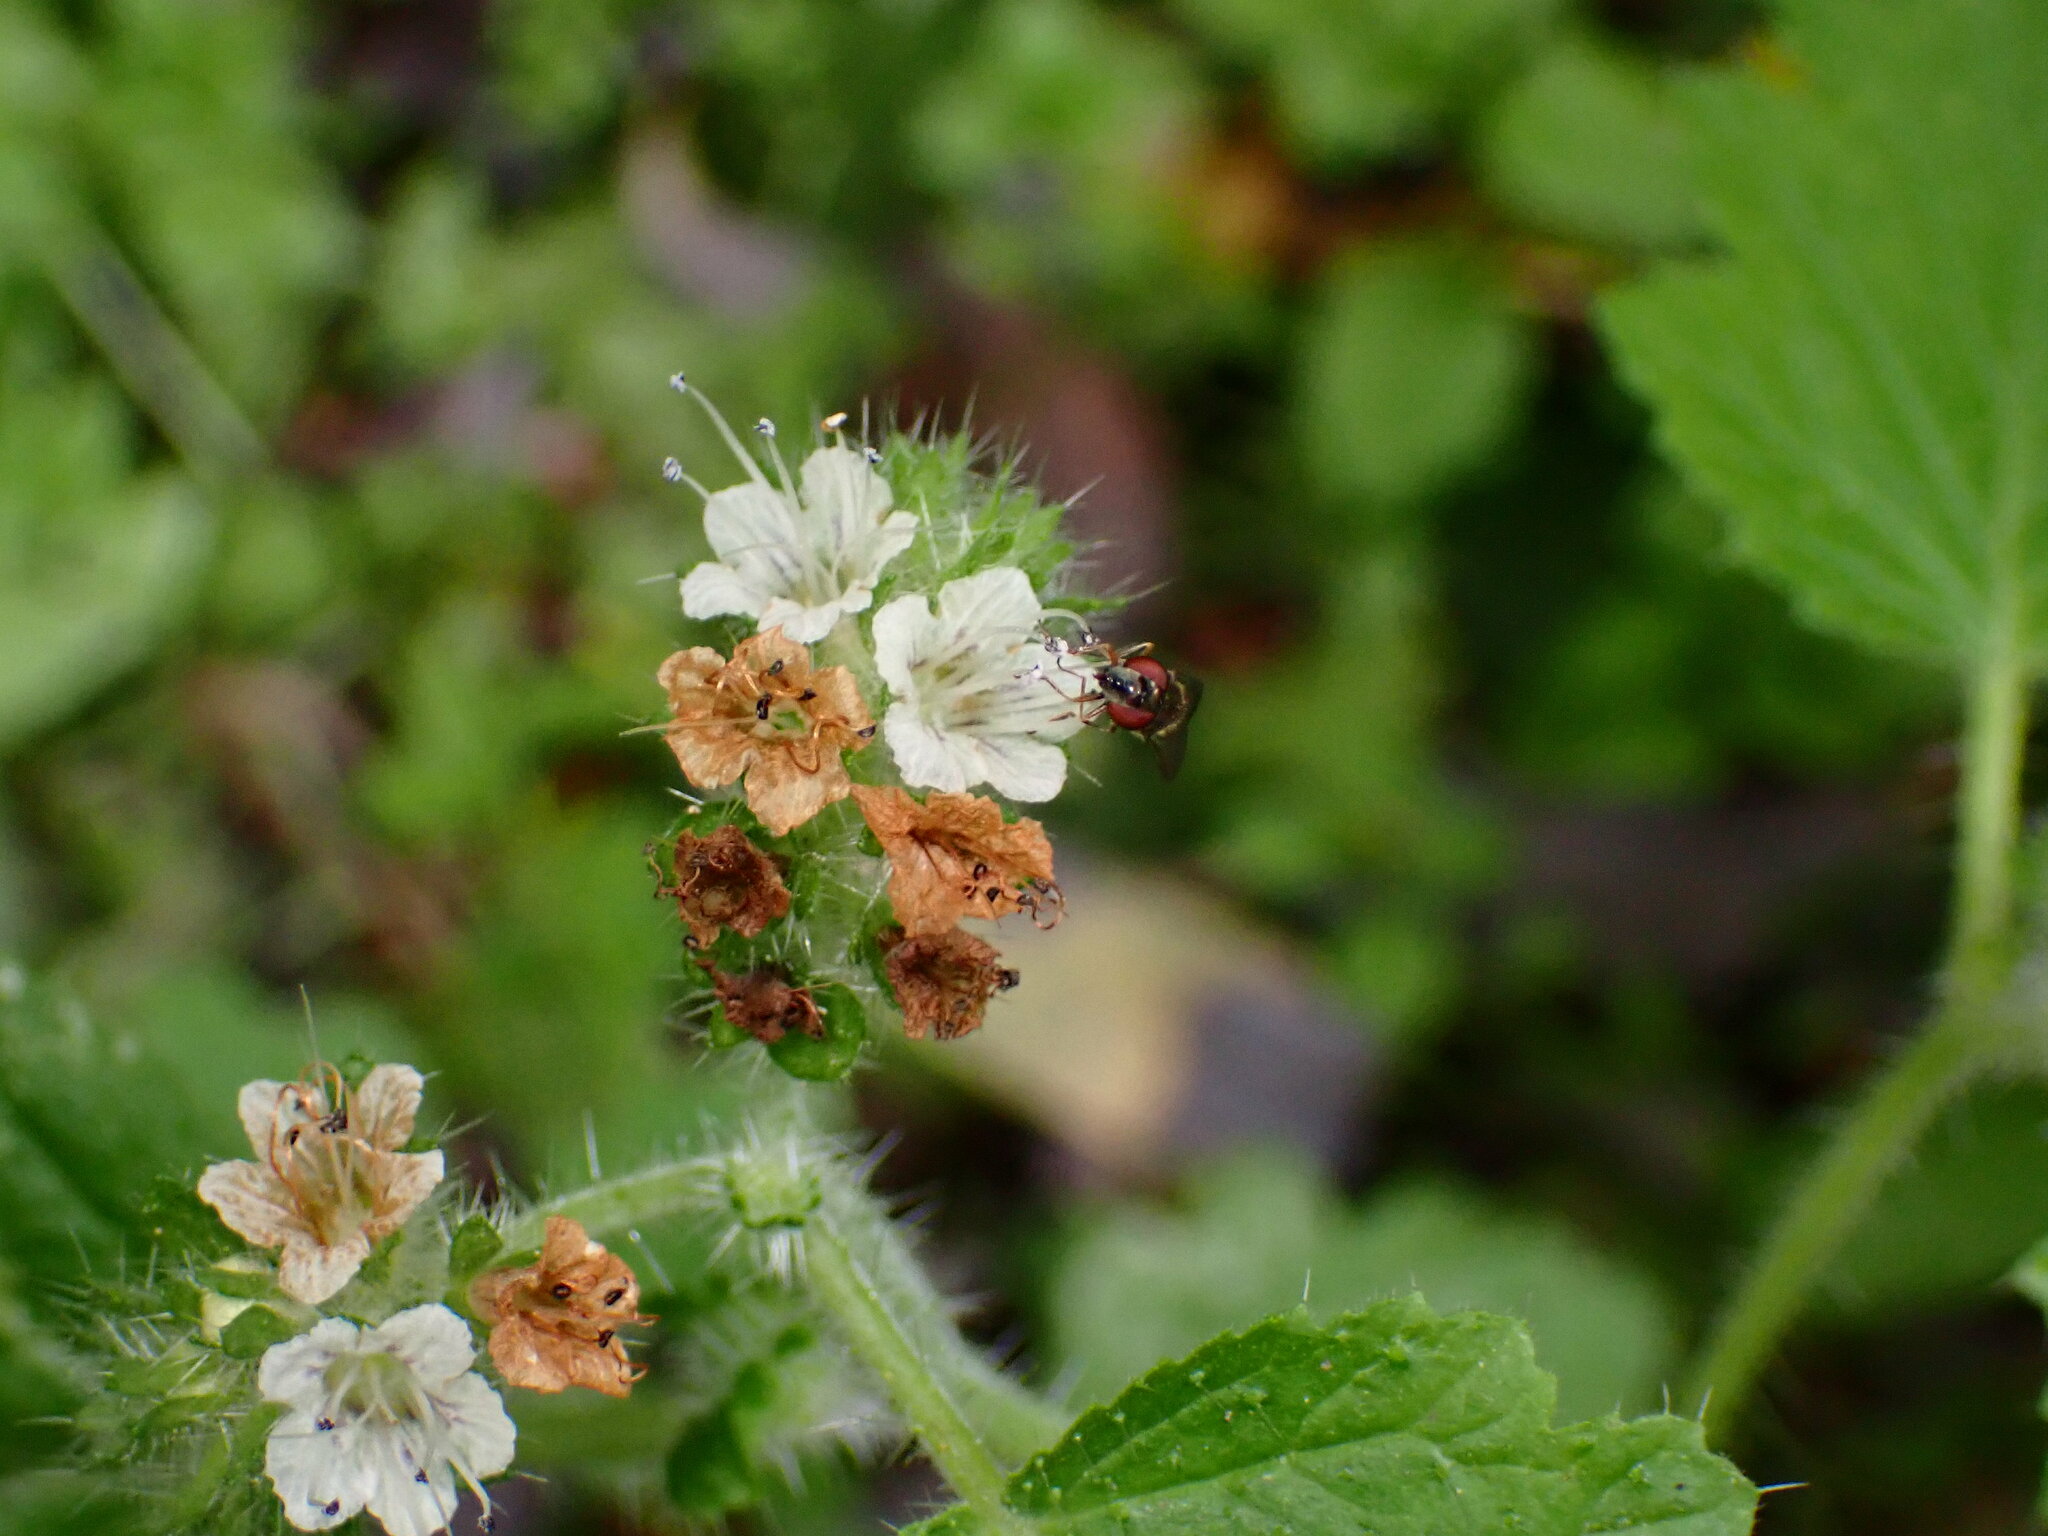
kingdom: Plantae
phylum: Tracheophyta
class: Magnoliopsida
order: Boraginales
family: Hydrophyllaceae
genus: Phacelia
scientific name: Phacelia malvifolia
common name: Mallow-leaf phacelia
